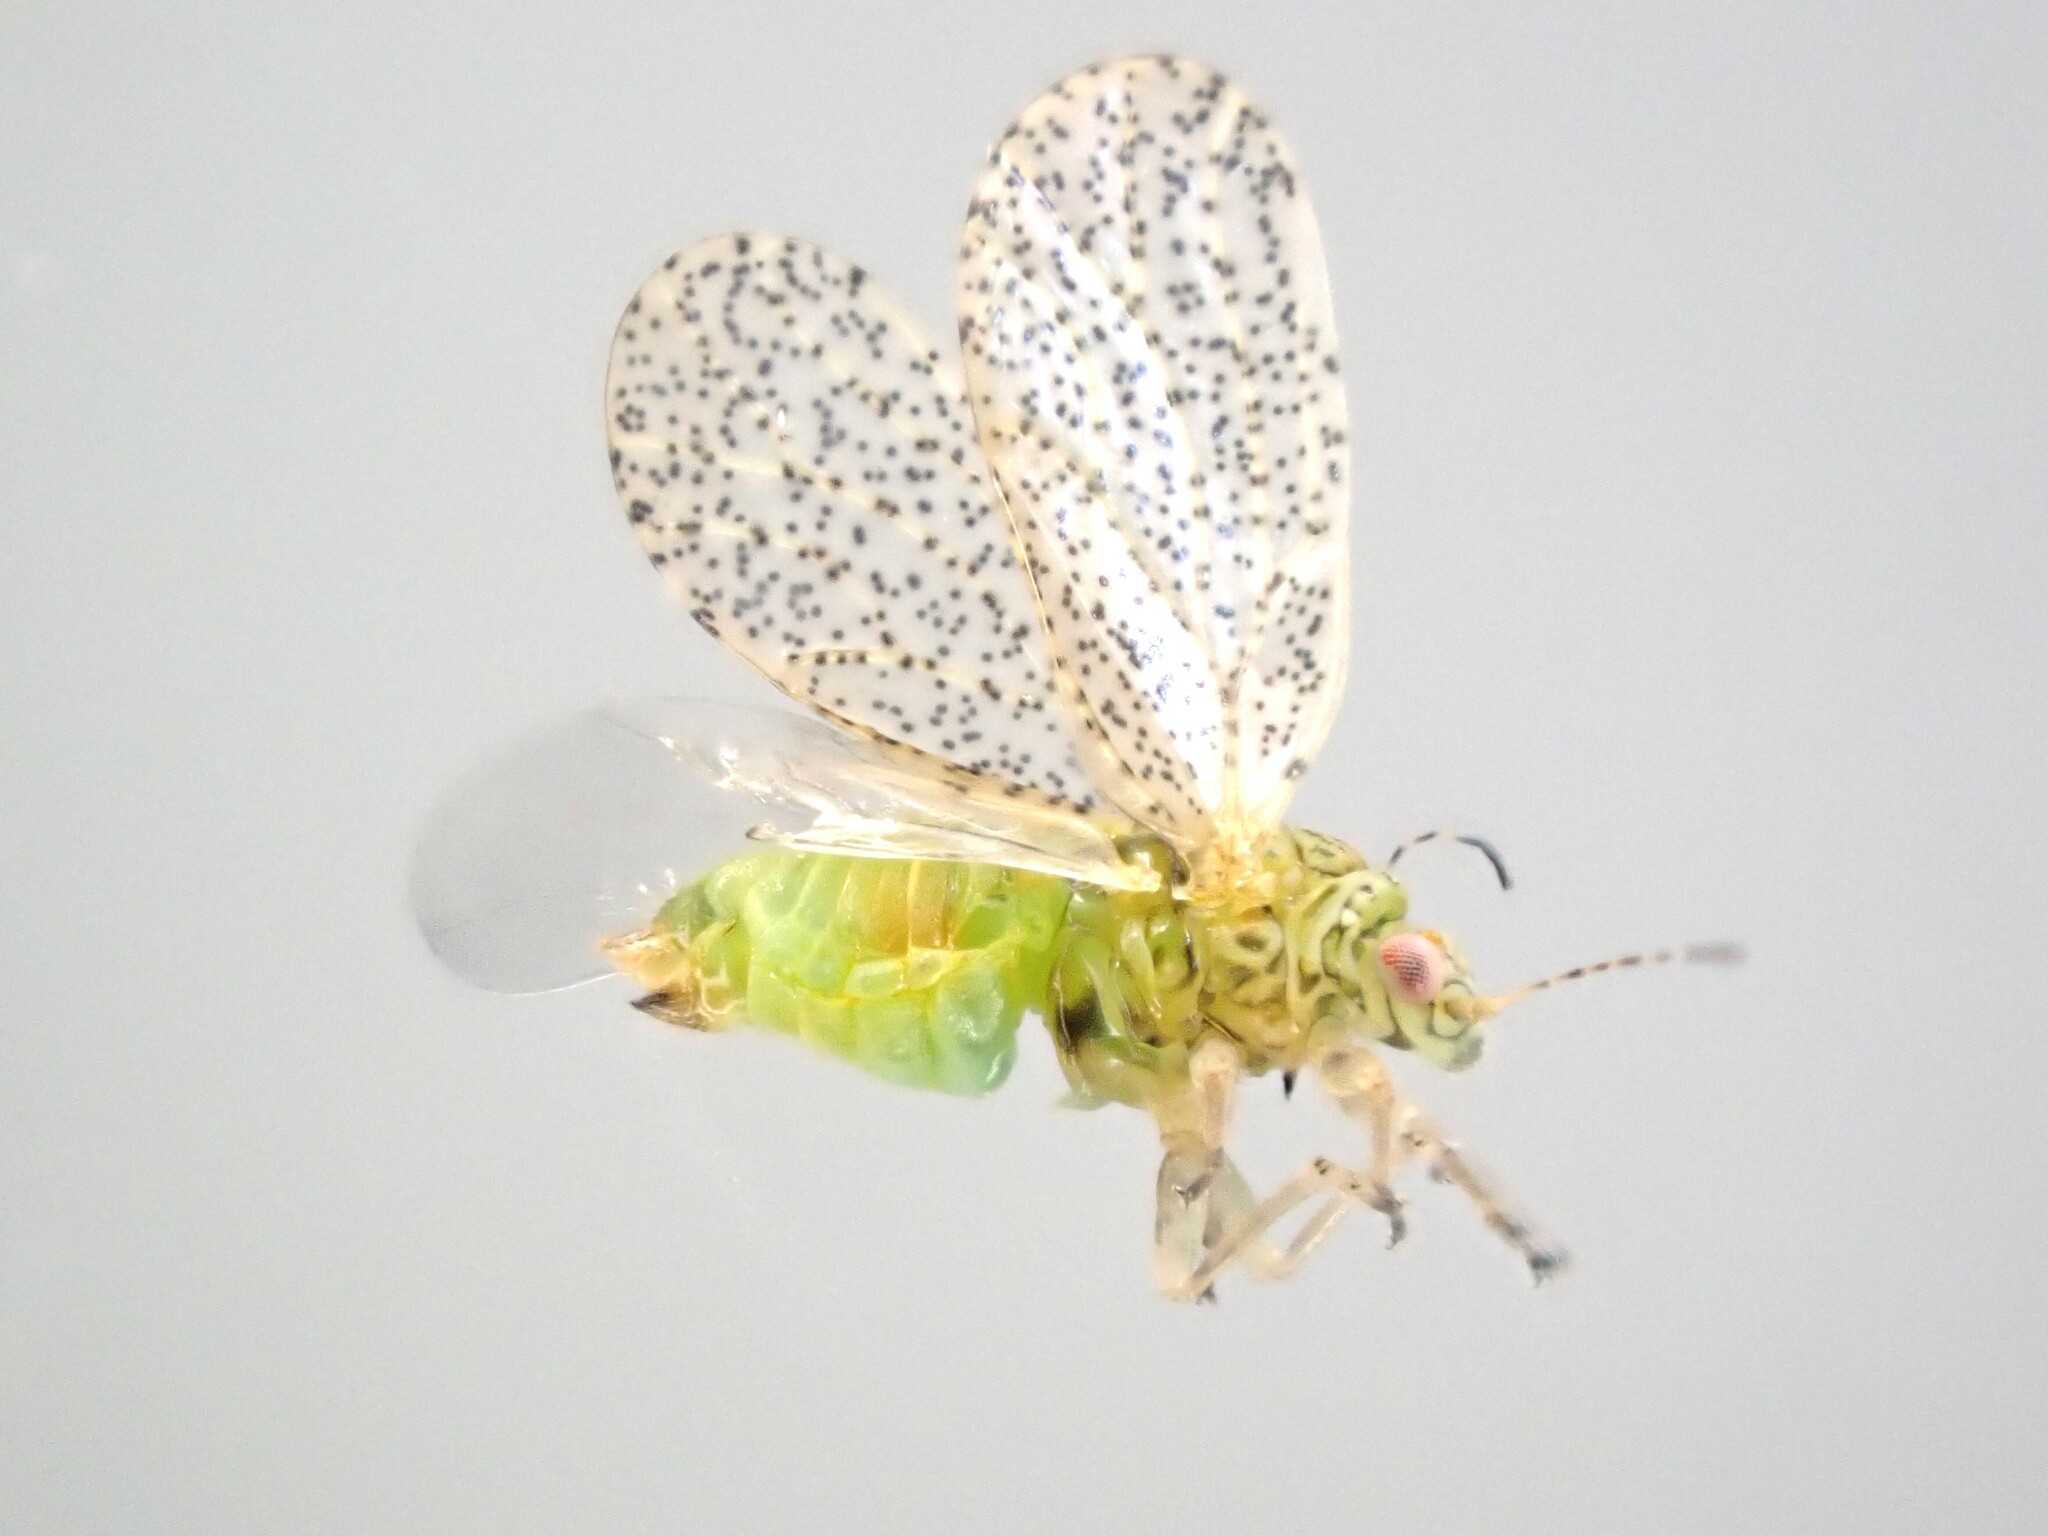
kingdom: Animalia
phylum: Arthropoda
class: Insecta
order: Hemiptera
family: Psyllidae
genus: Psylla
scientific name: Psylla frodobagginsi
